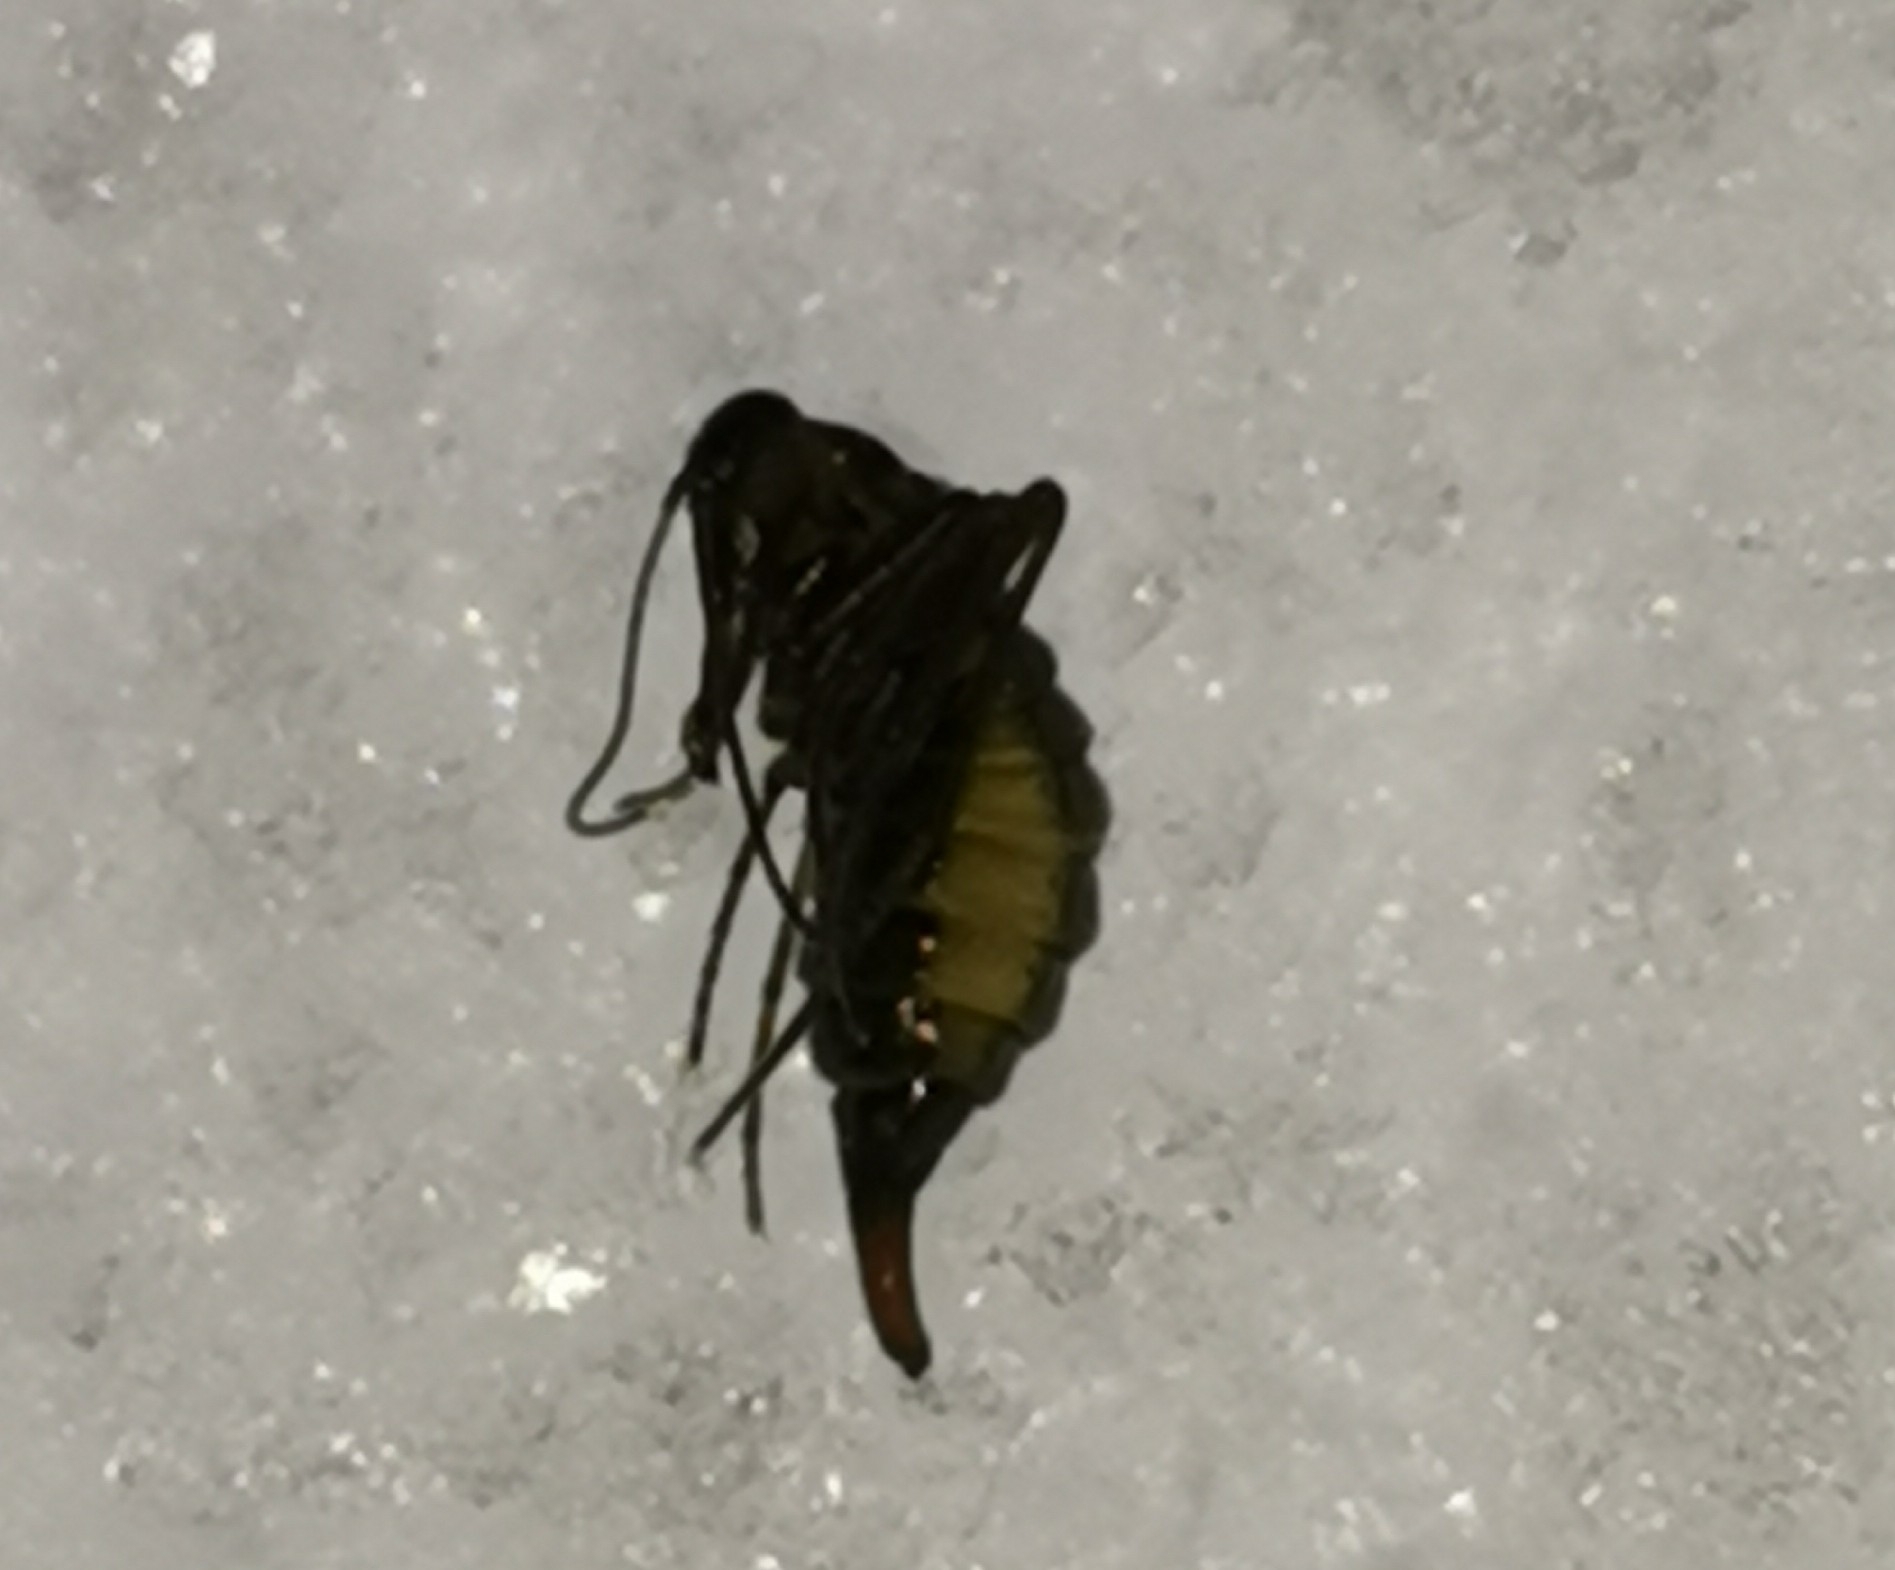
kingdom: Animalia
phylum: Arthropoda
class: Insecta
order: Mecoptera
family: Boreidae
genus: Boreus
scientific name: Boreus westwoodi
